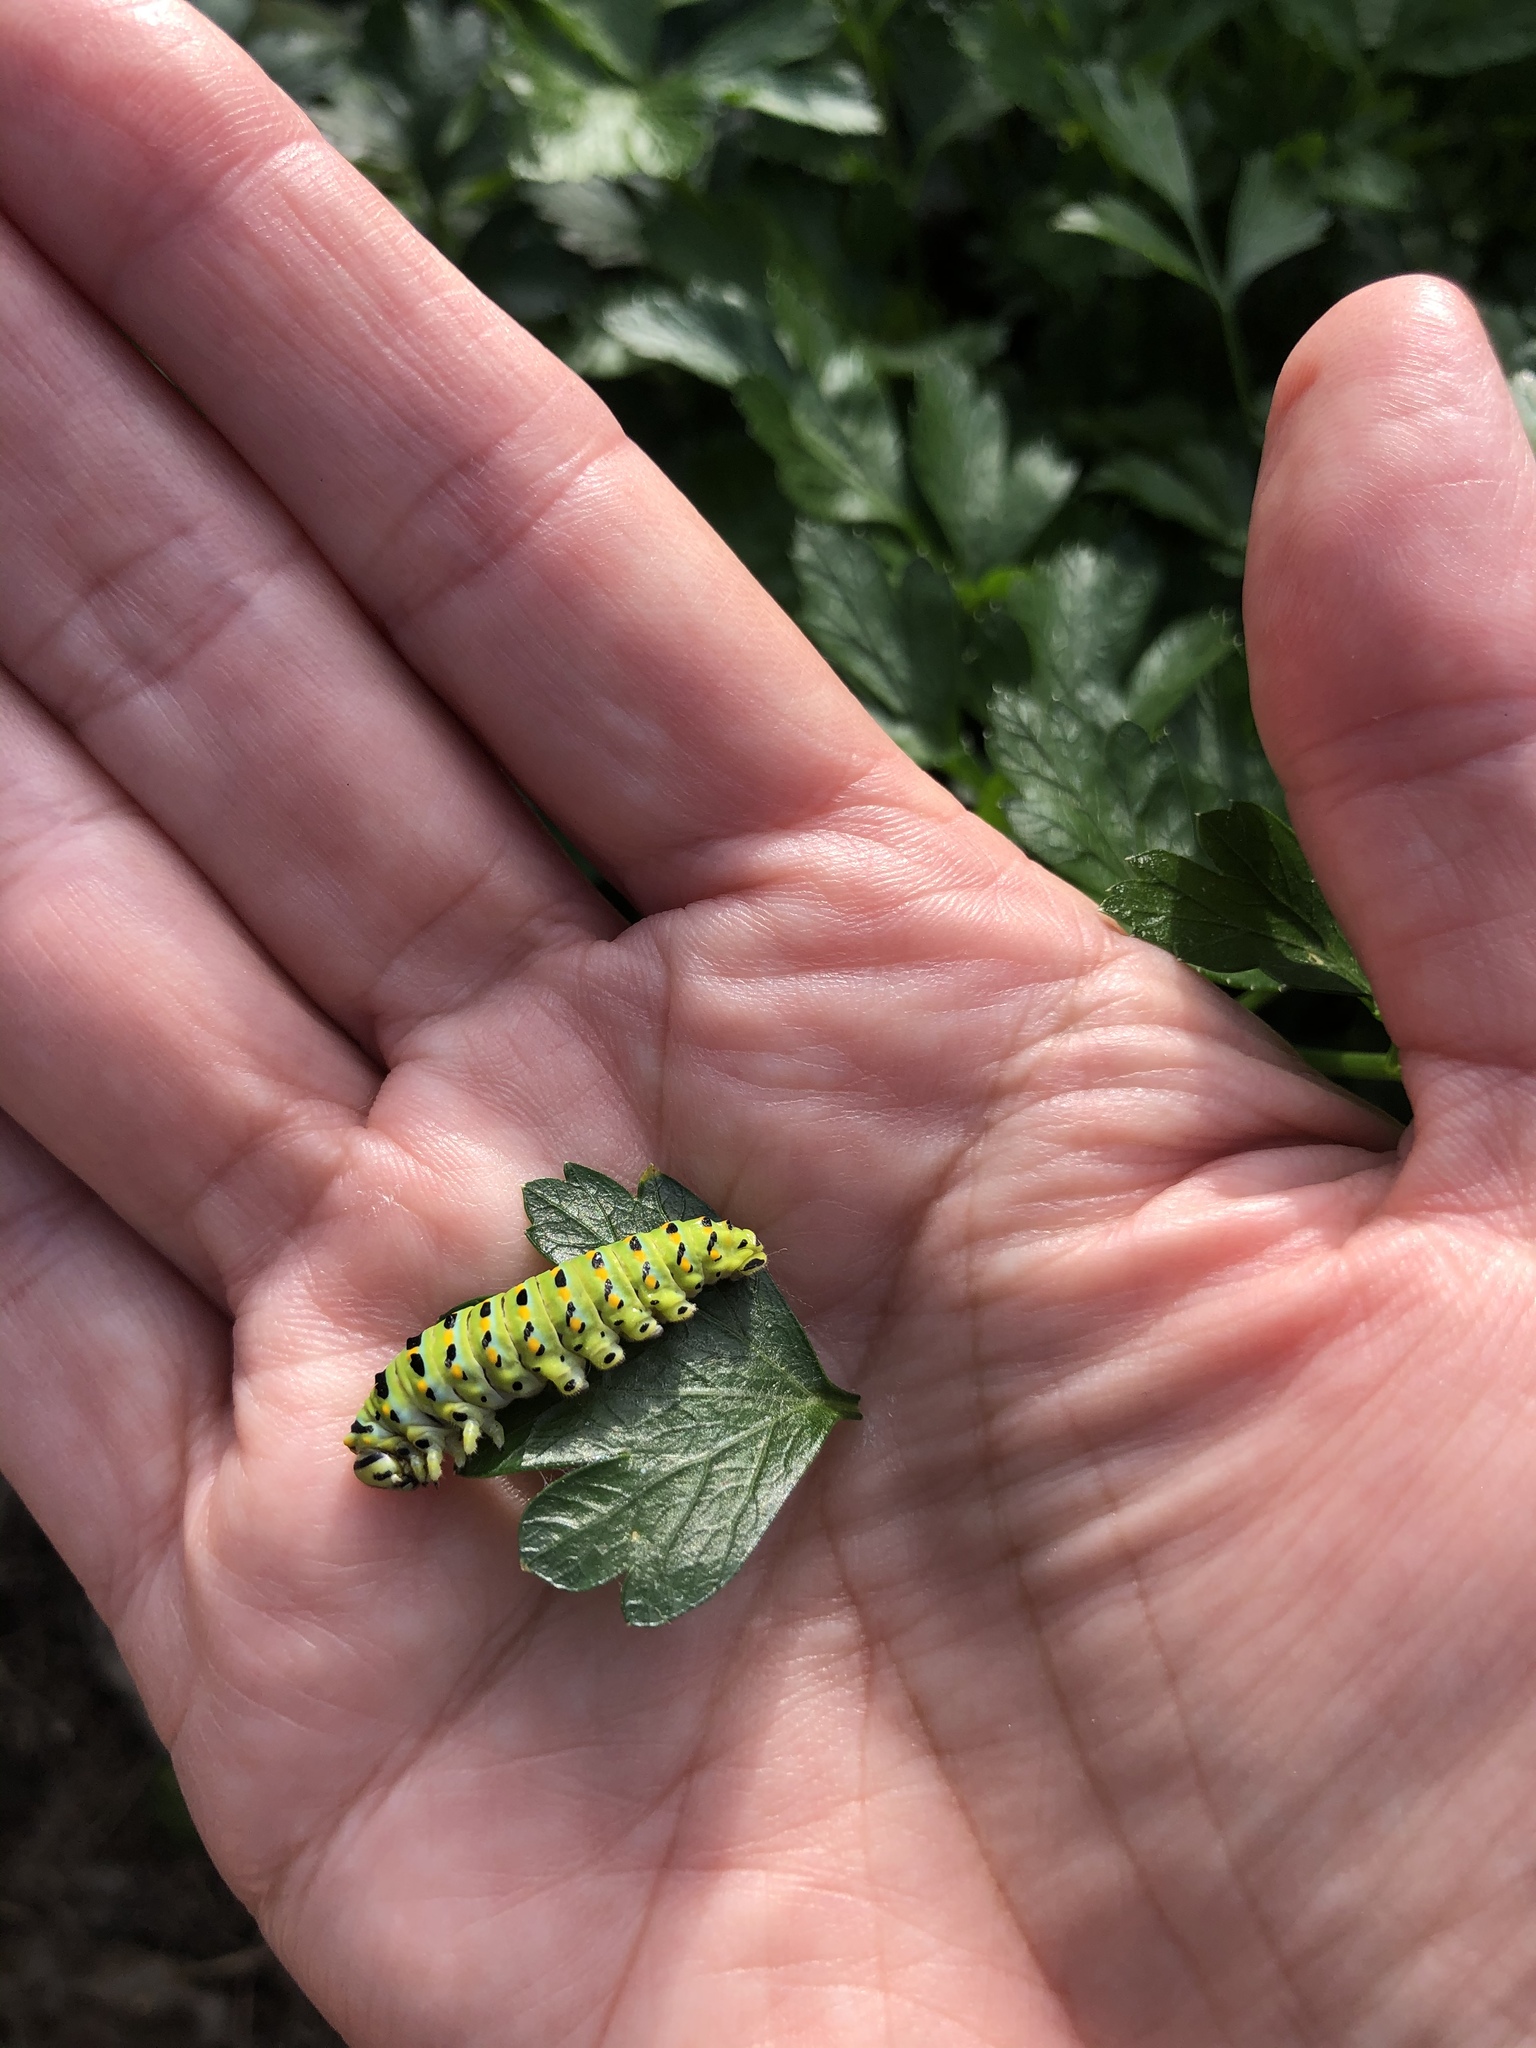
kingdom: Animalia
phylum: Arthropoda
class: Insecta
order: Lepidoptera
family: Papilionidae
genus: Papilio
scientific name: Papilio zelicaon
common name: Anise swallowtail
